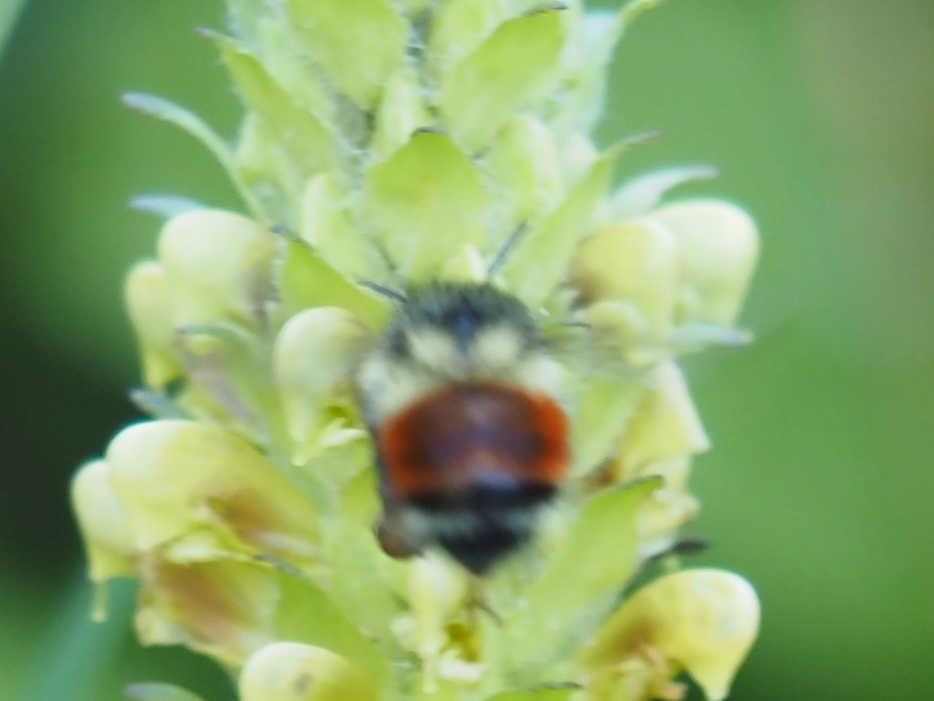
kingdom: Animalia
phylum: Arthropoda
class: Insecta
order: Hymenoptera
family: Apidae
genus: Bombus
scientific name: Bombus melanopygus
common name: Black tail bumble bee
